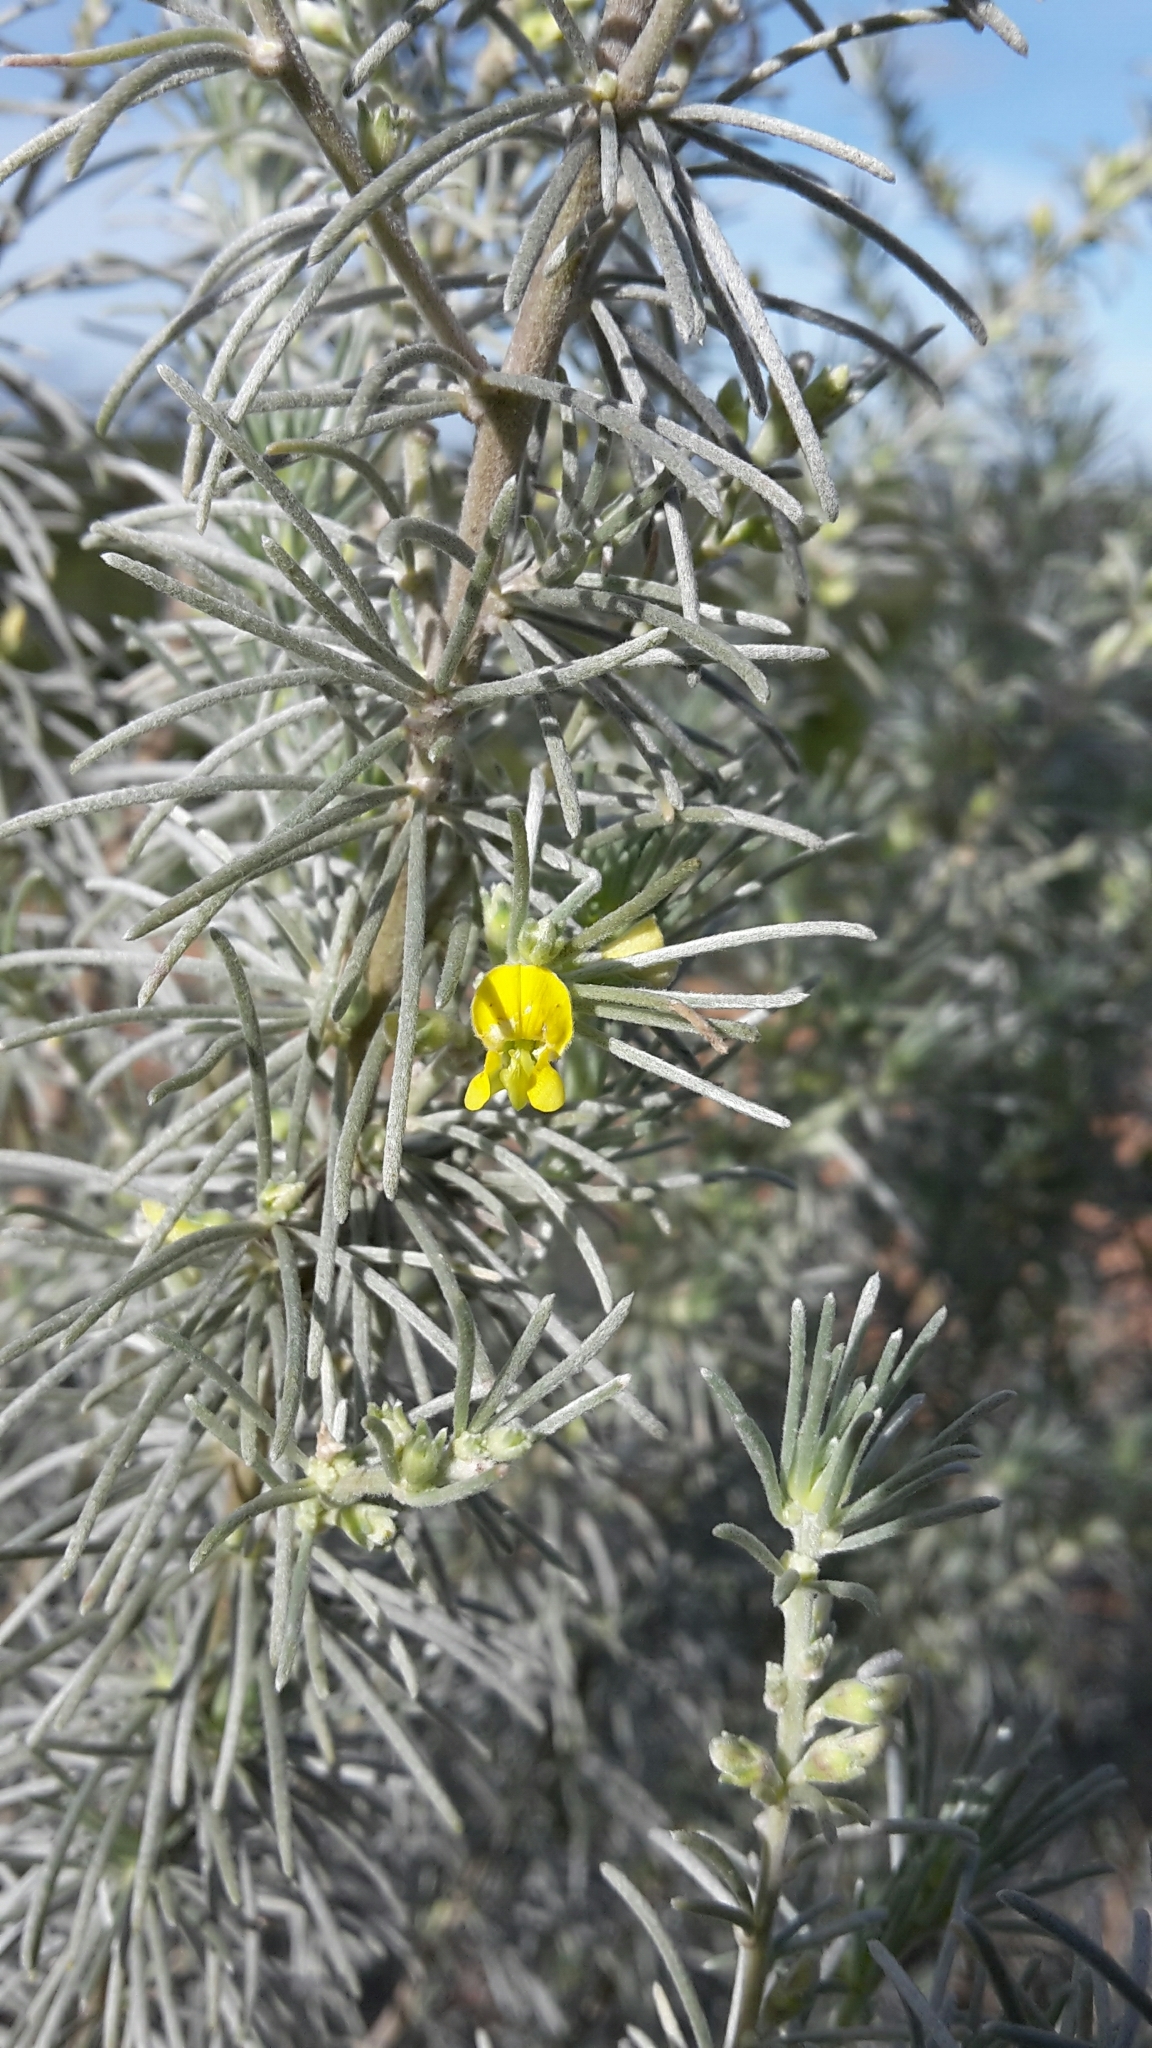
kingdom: Plantae
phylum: Tracheophyta
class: Magnoliopsida
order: Fabales
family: Fabaceae
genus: Aspalathus
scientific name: Aspalathus cinerascens
